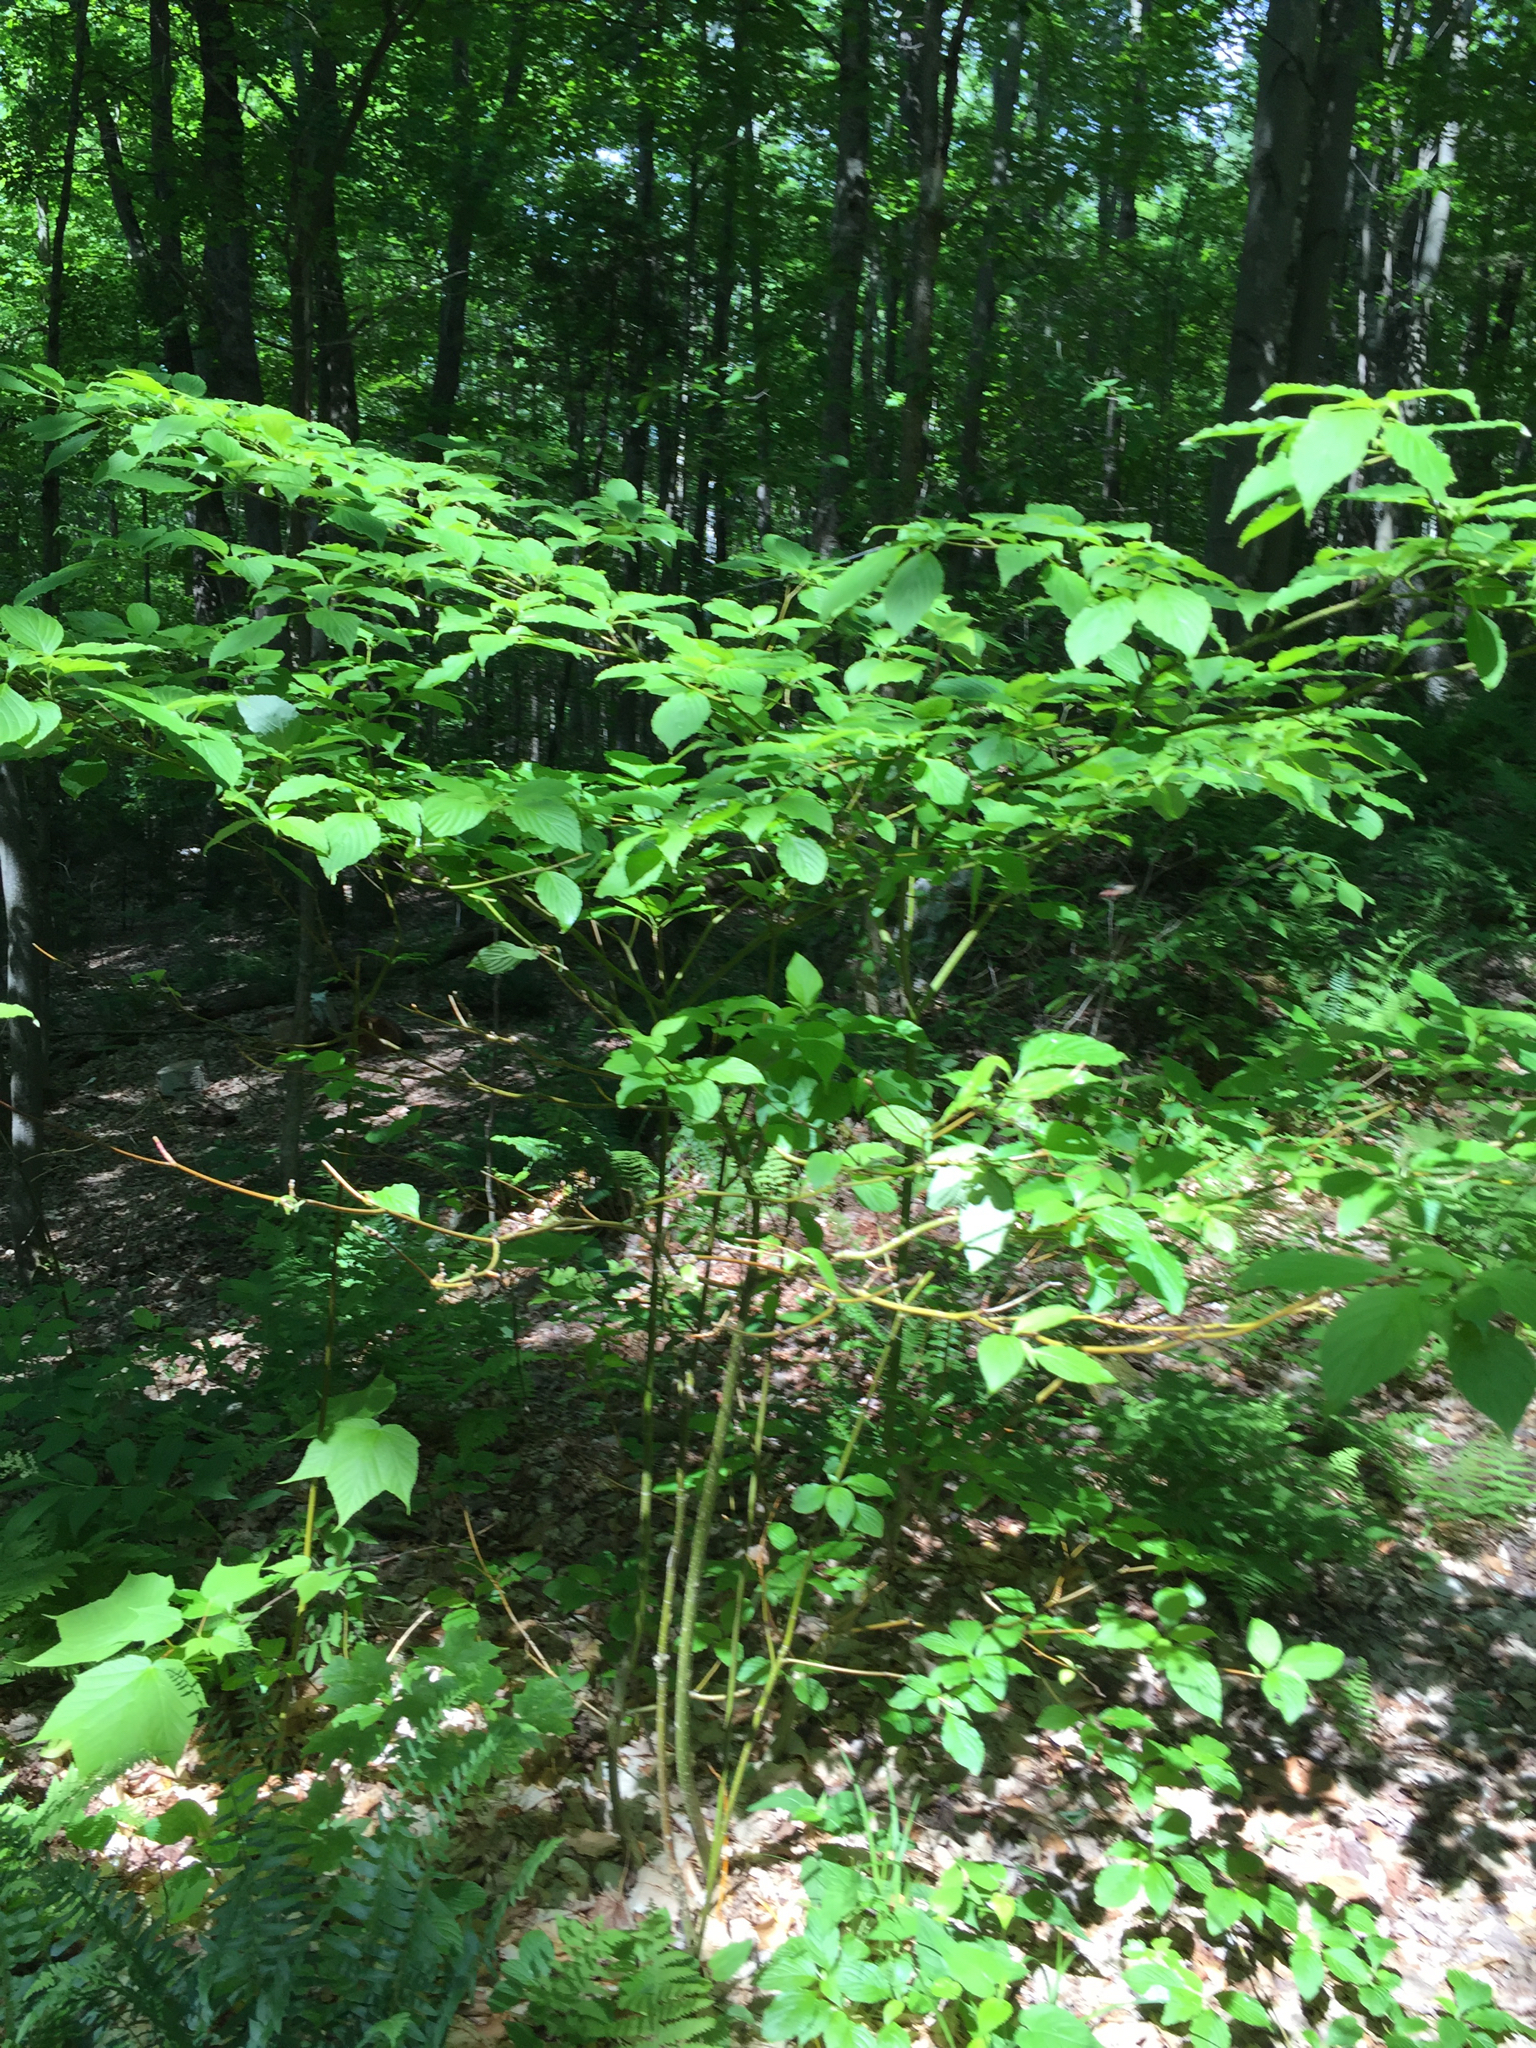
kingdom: Plantae
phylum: Tracheophyta
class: Magnoliopsida
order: Cornales
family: Cornaceae
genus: Cornus
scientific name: Cornus alternifolia
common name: Pagoda dogwood
